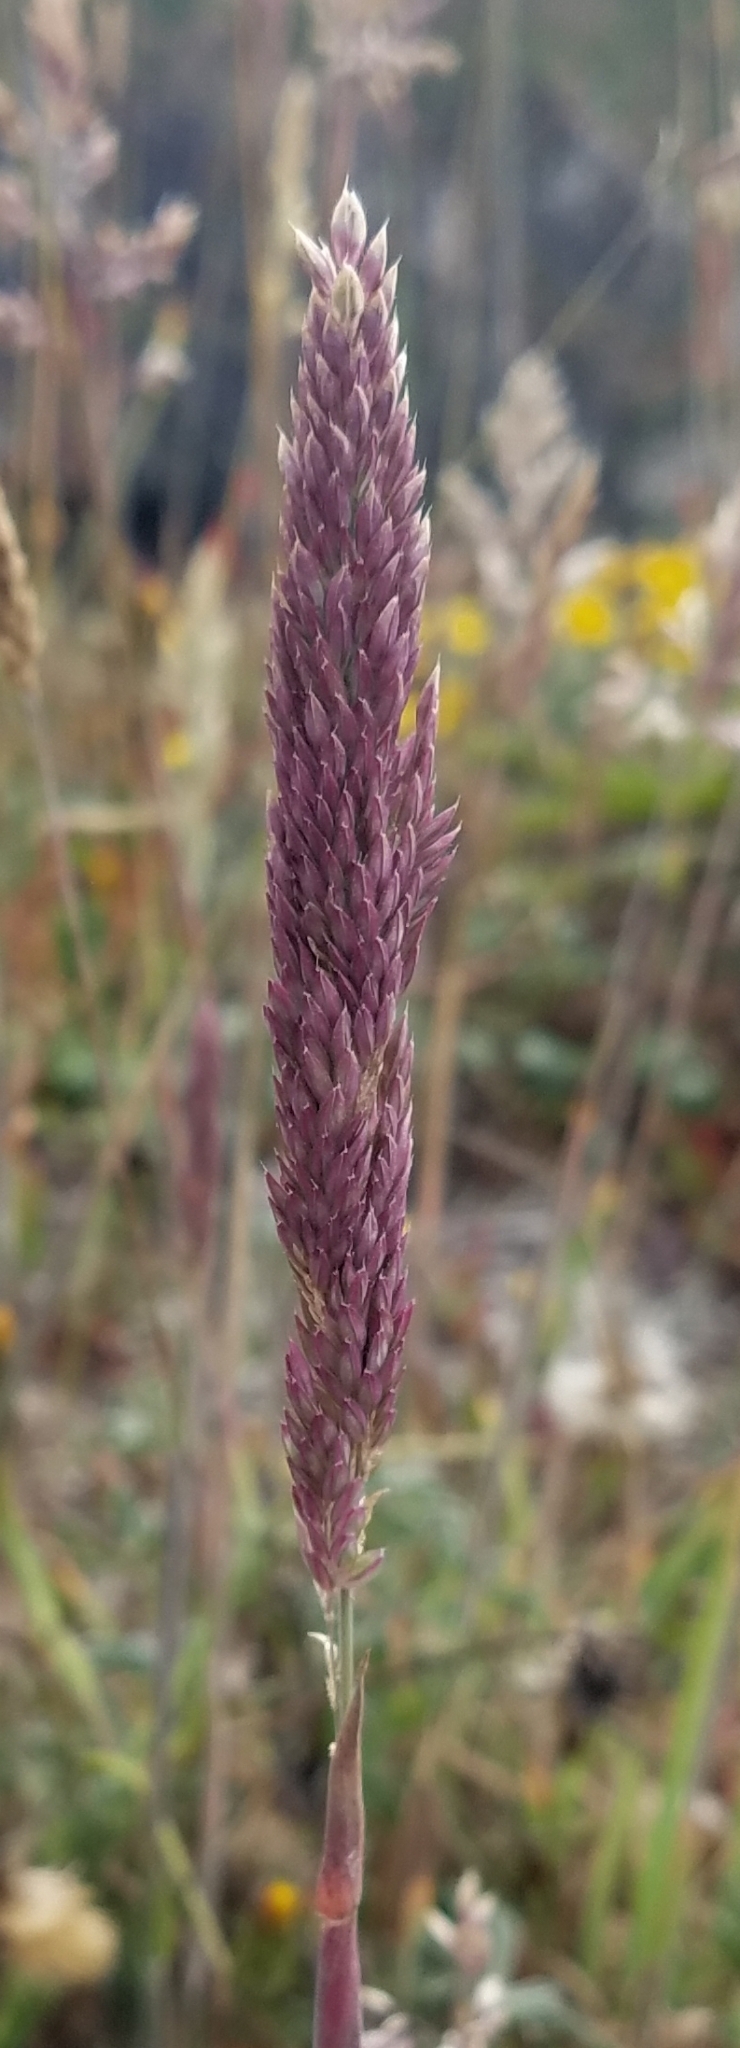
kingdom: Plantae
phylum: Tracheophyta
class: Liliopsida
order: Poales
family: Poaceae
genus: Holcus
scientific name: Holcus lanatus
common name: Yorkshire-fog
